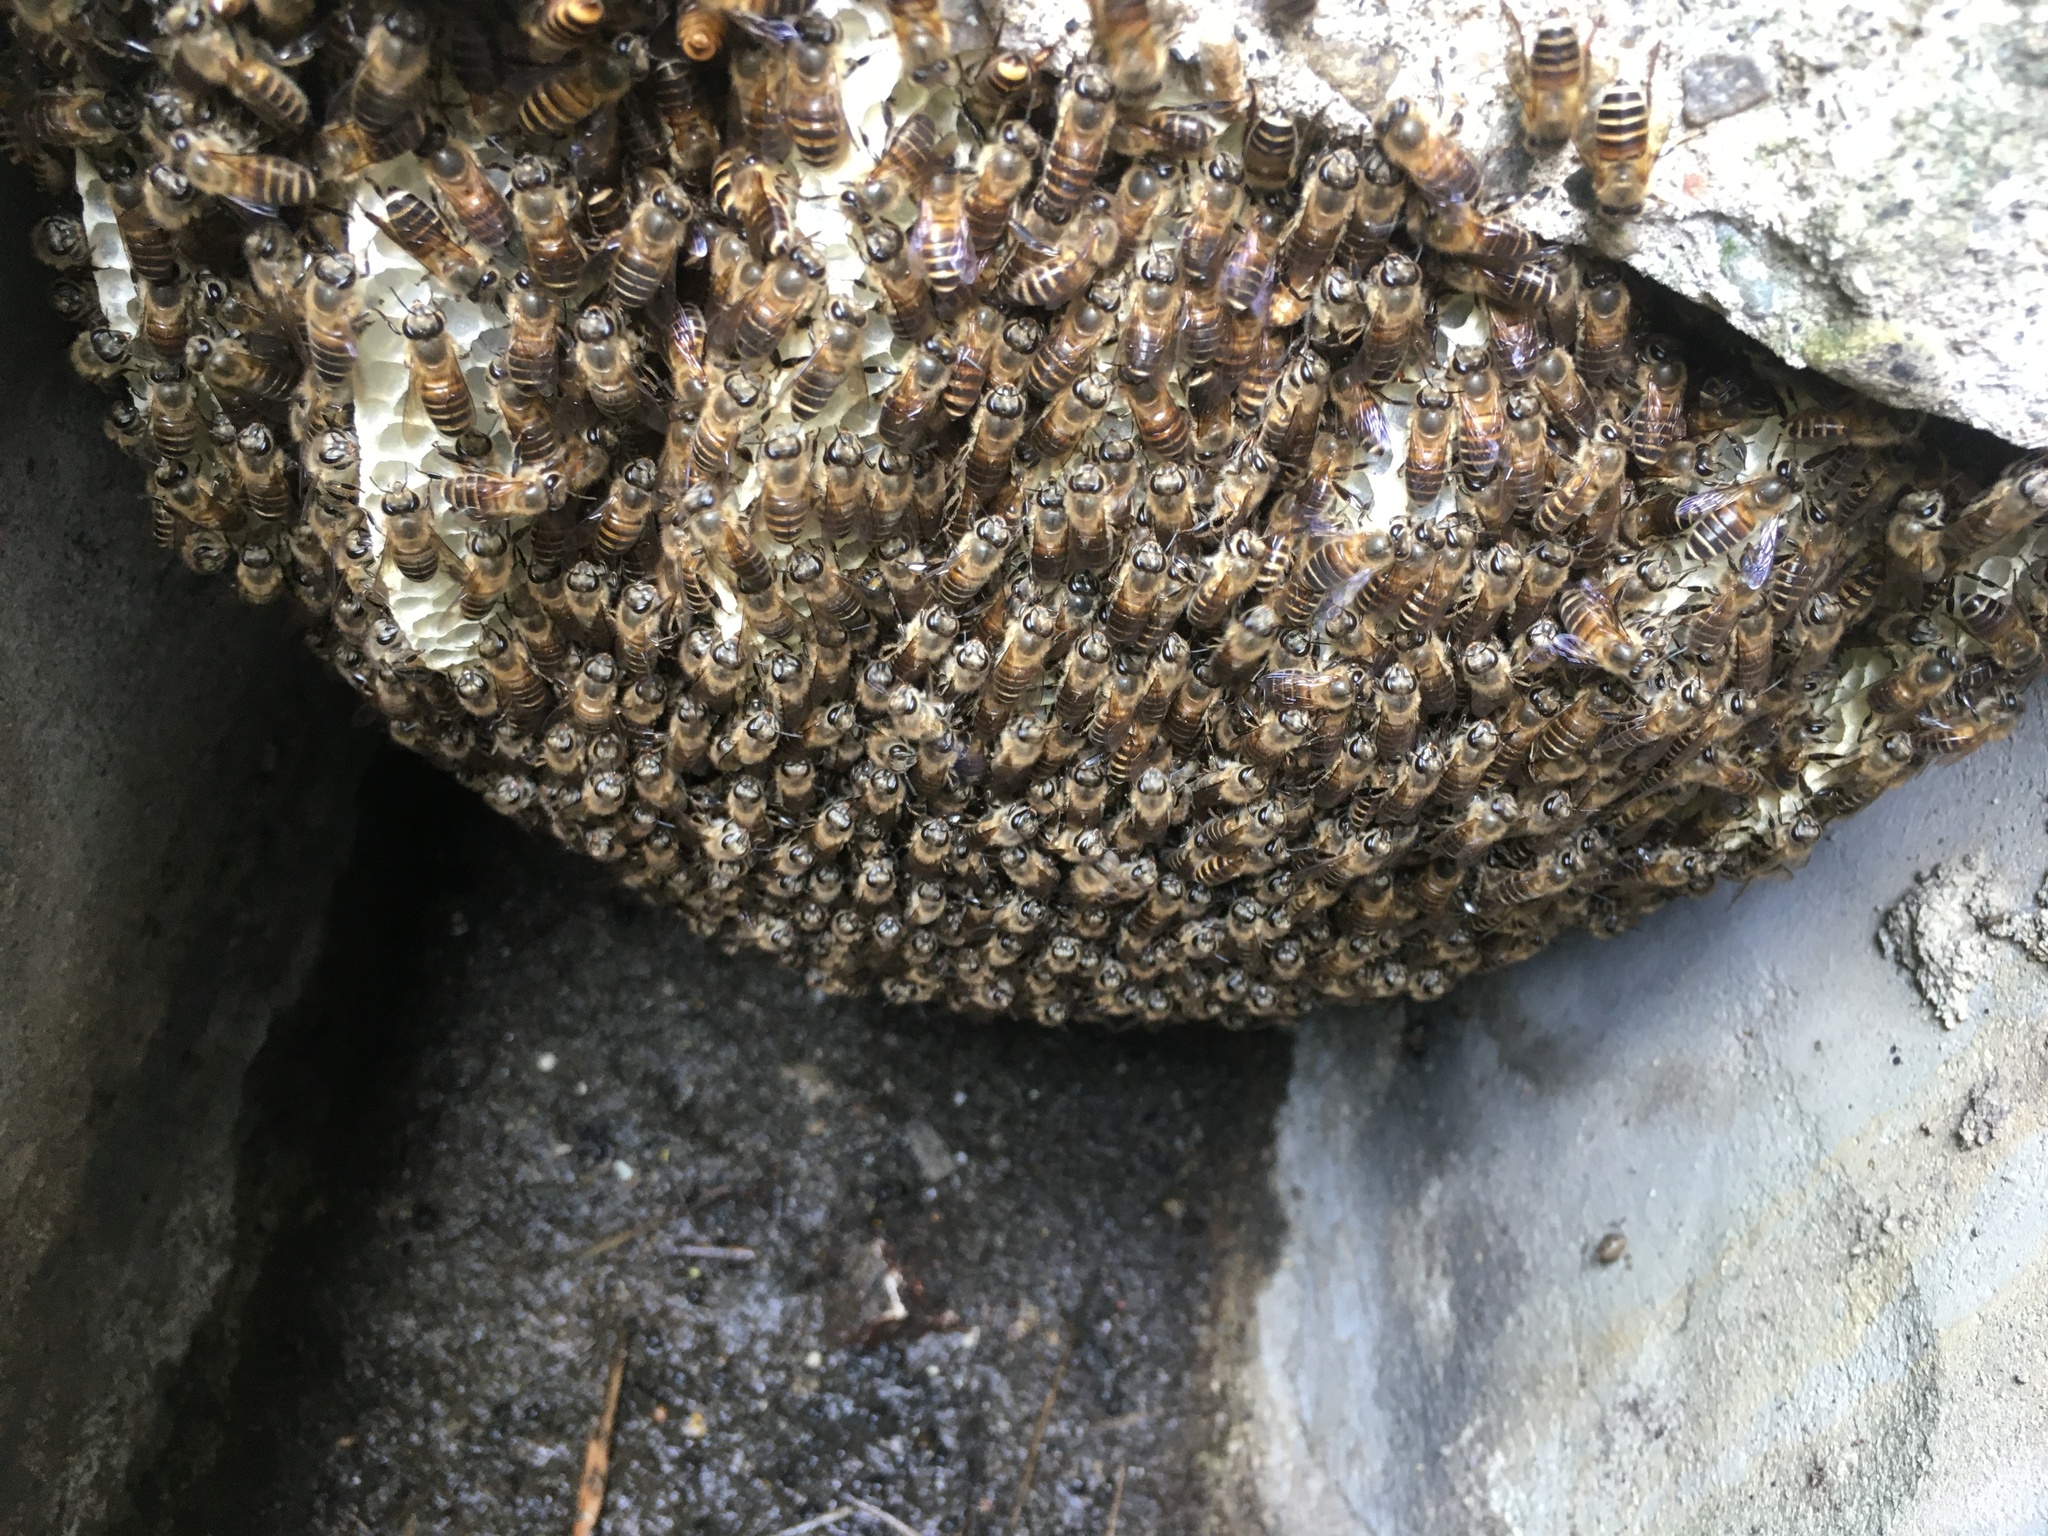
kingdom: Animalia
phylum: Arthropoda
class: Insecta
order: Hymenoptera
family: Apidae
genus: Apis
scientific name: Apis cerana
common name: Honey bee
